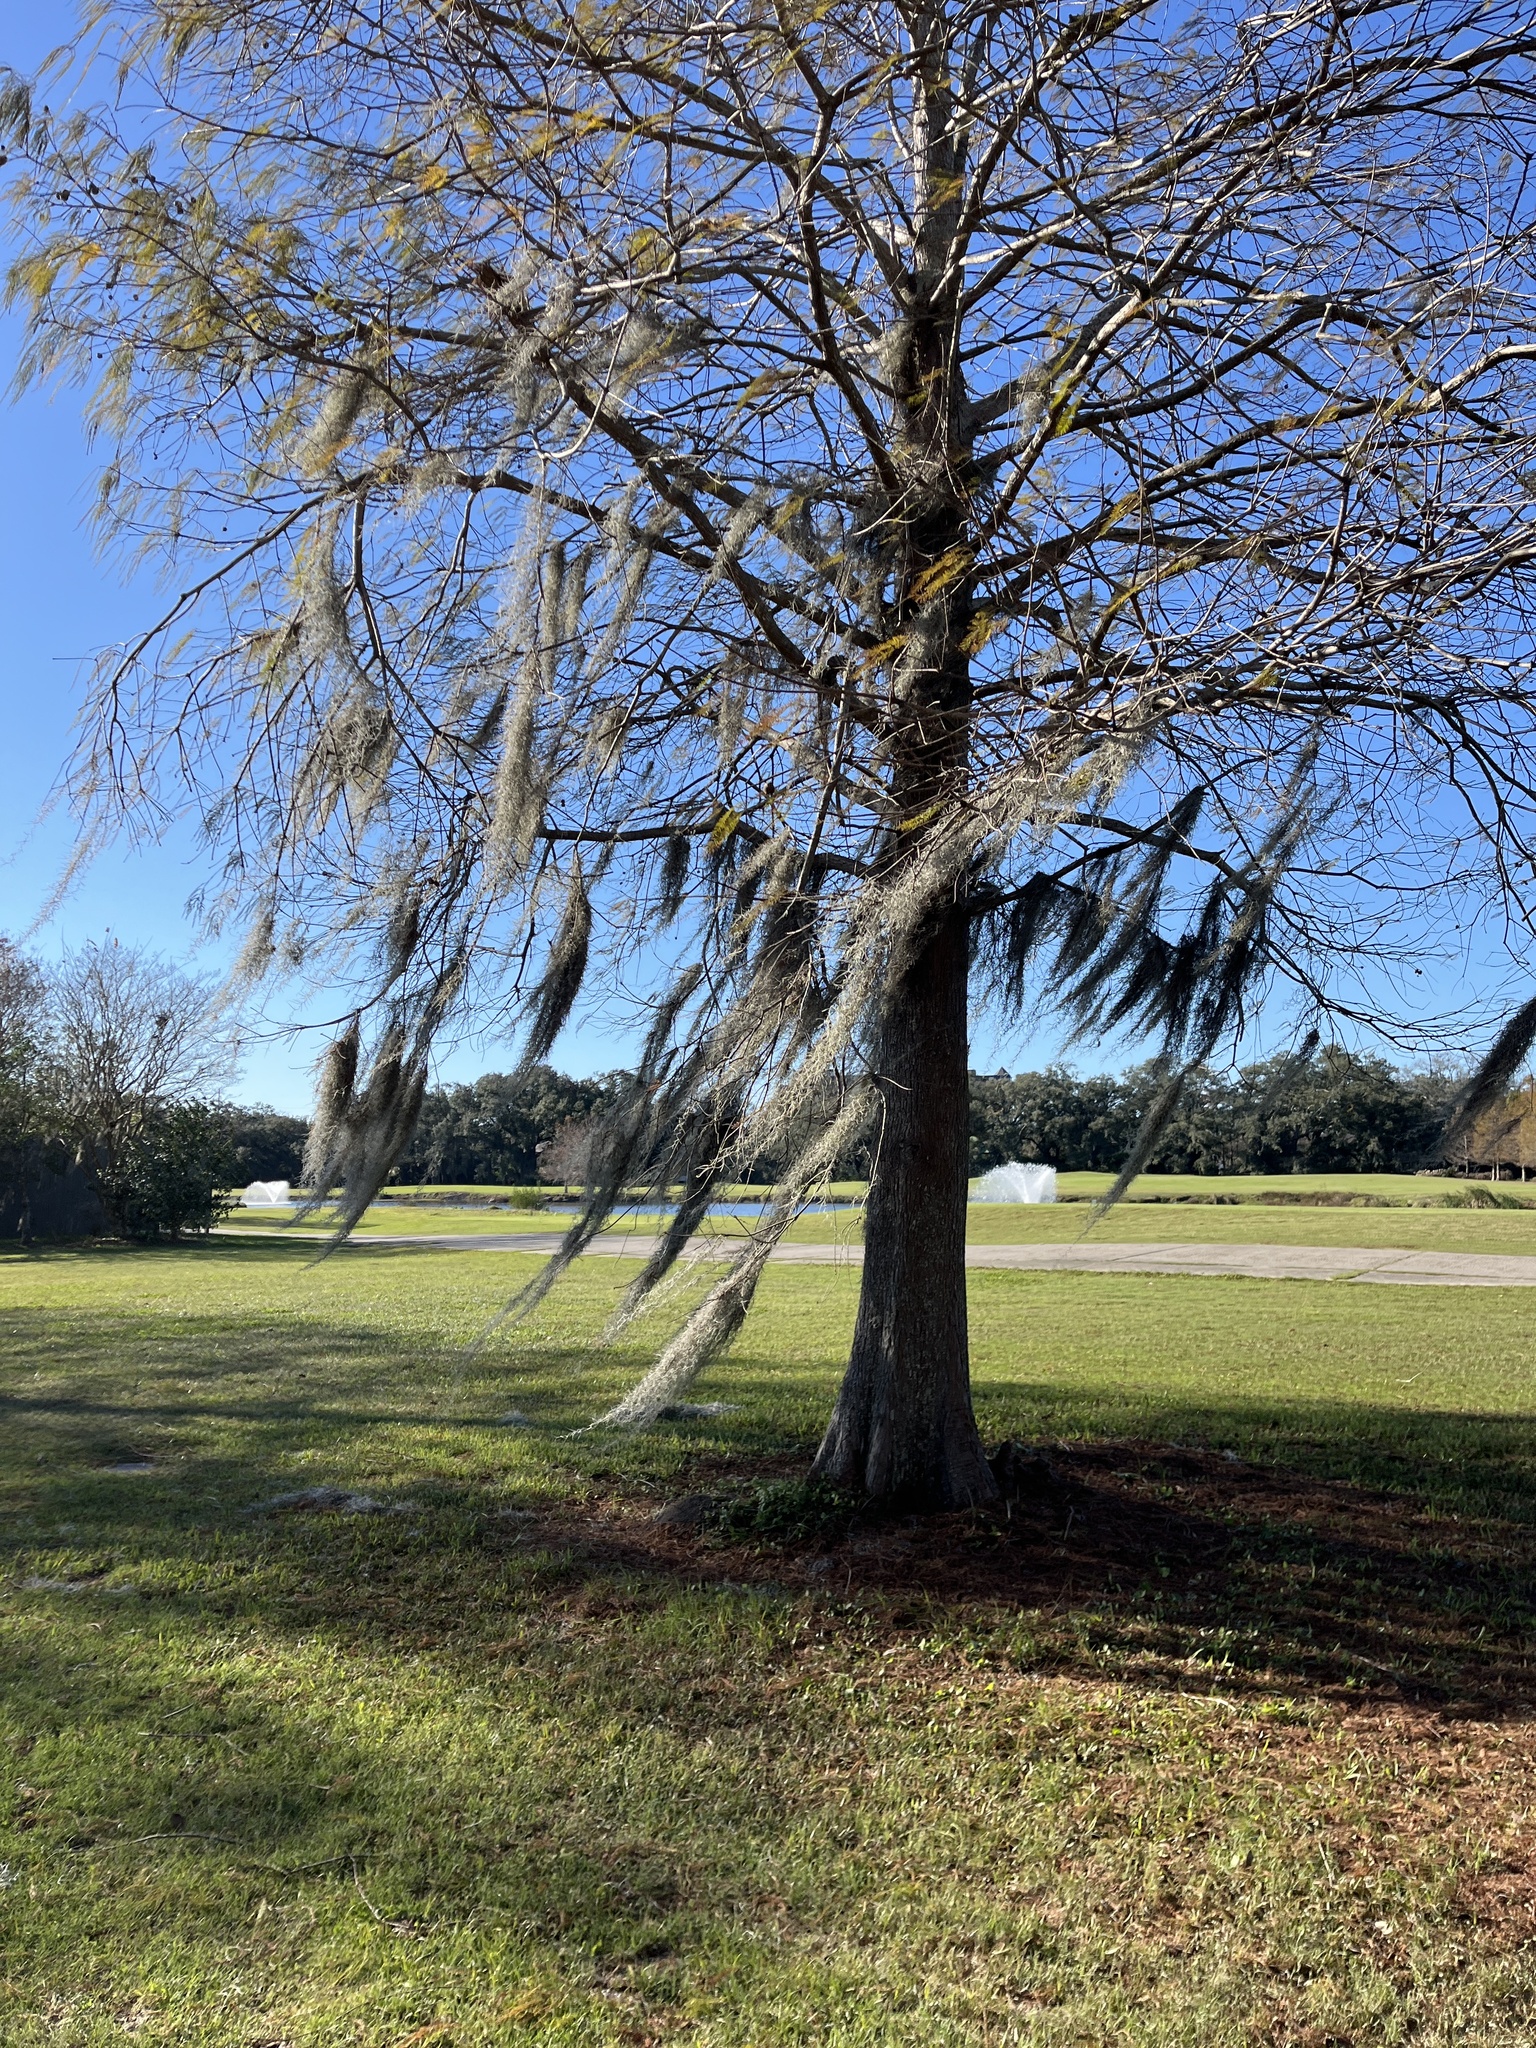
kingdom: Plantae
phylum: Tracheophyta
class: Liliopsida
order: Poales
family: Bromeliaceae
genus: Tillandsia
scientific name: Tillandsia usneoides
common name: Spanish moss
